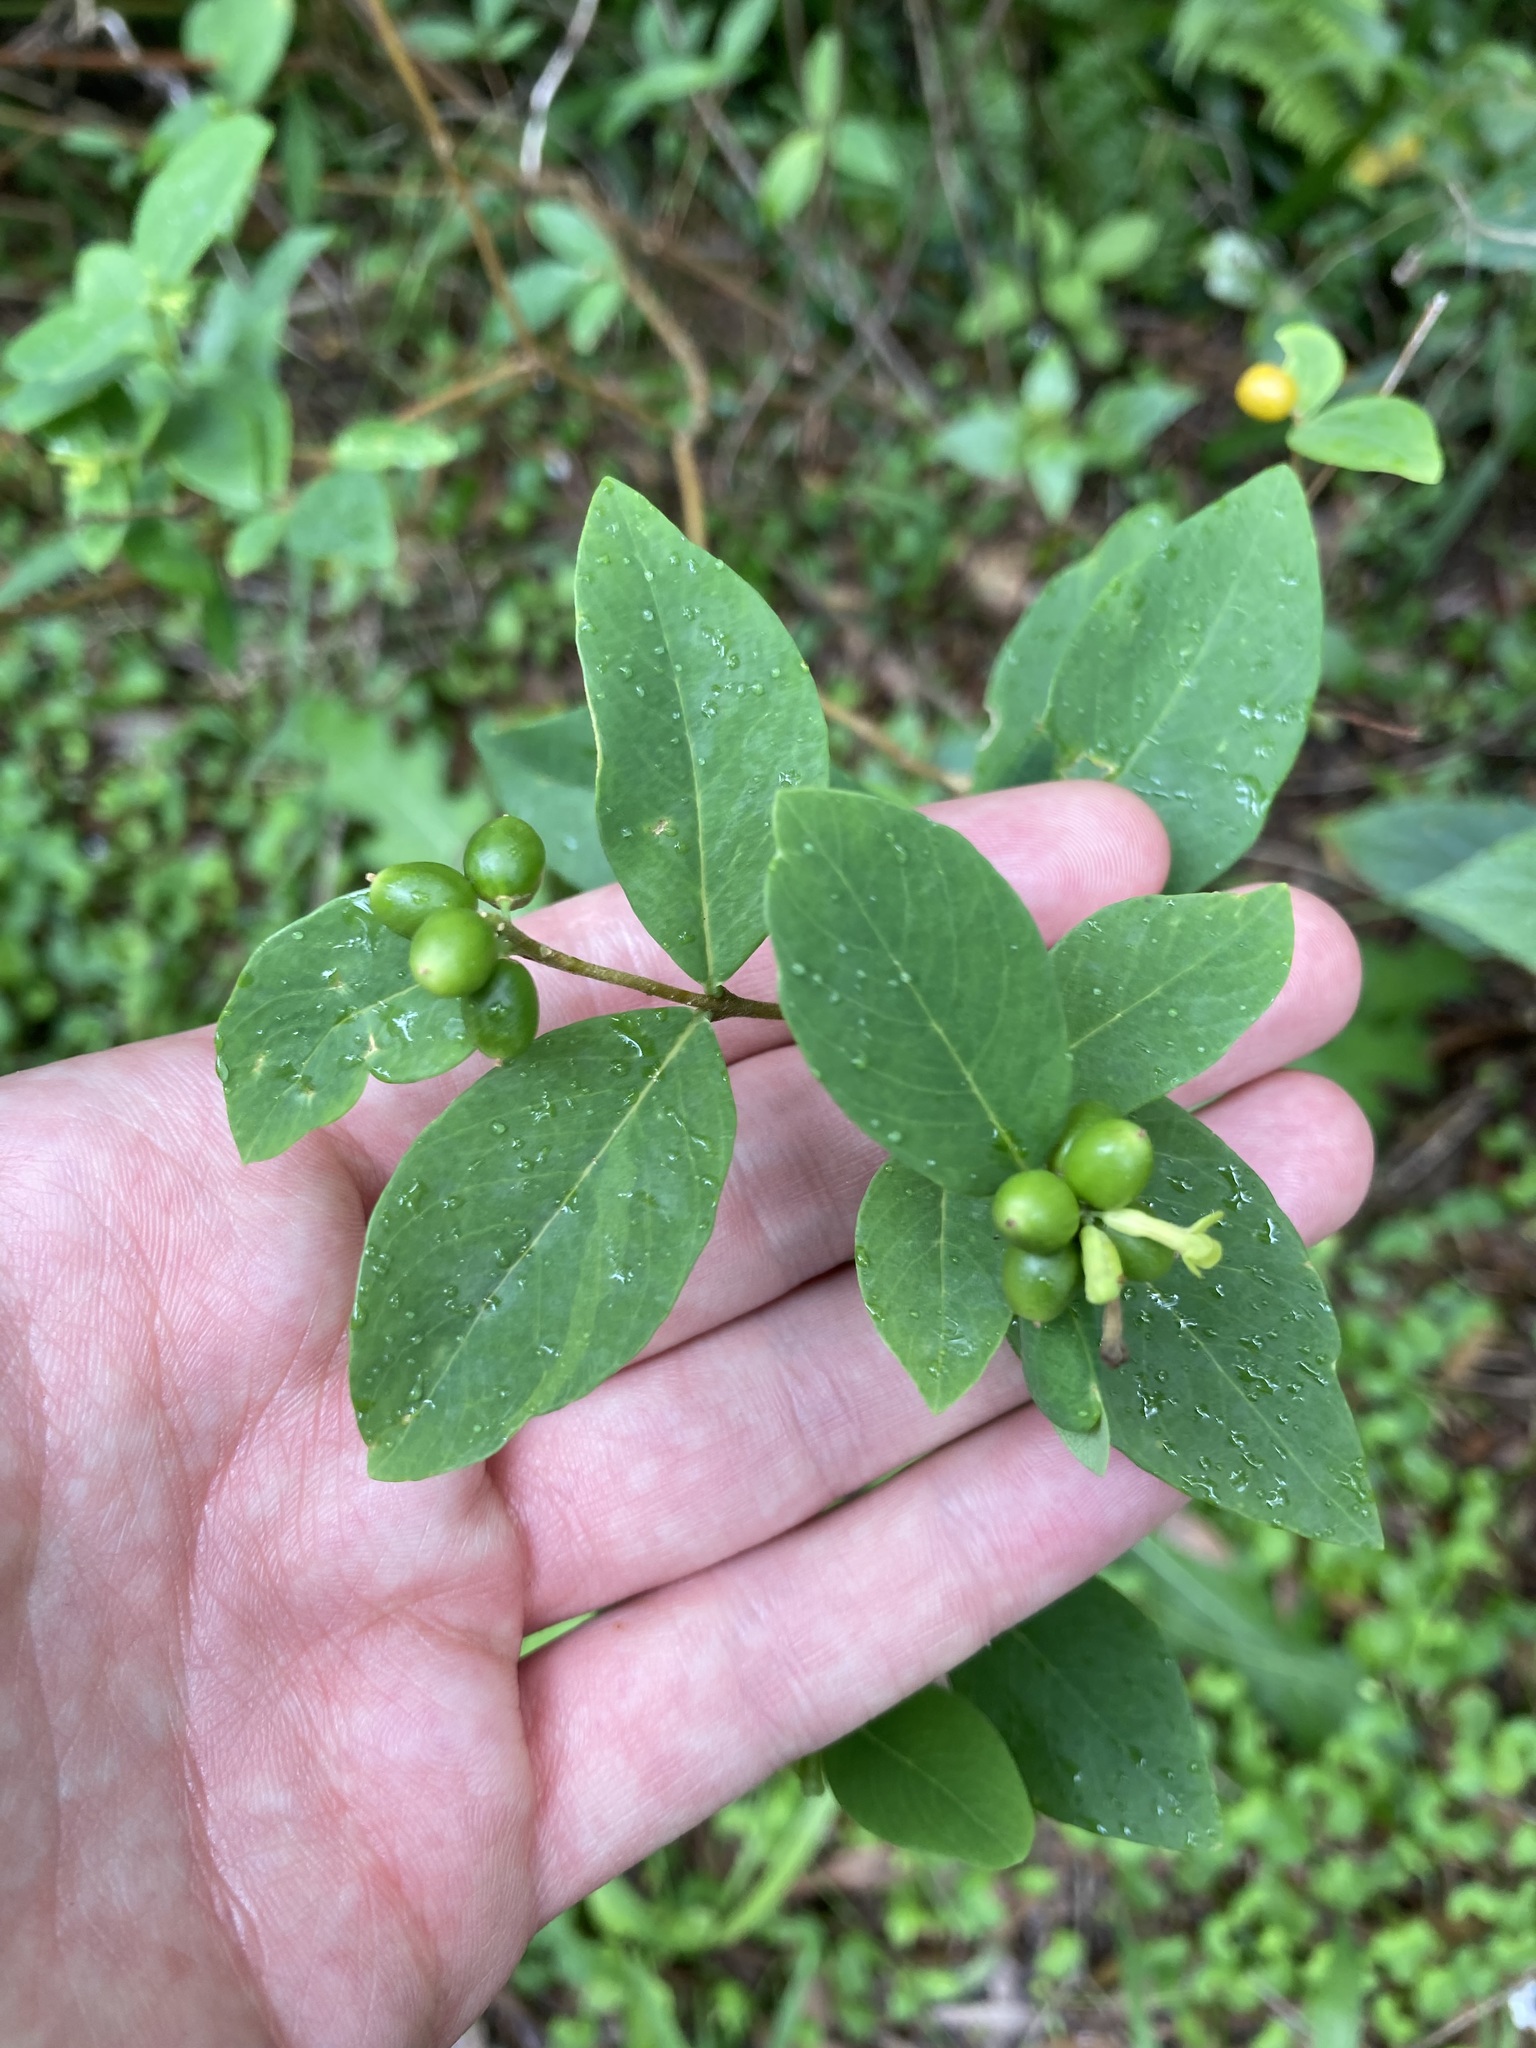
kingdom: Plantae
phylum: Tracheophyta
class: Magnoliopsida
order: Malvales
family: Thymelaeaceae
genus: Wikstroemia
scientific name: Wikstroemia indica
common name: Tiebush
